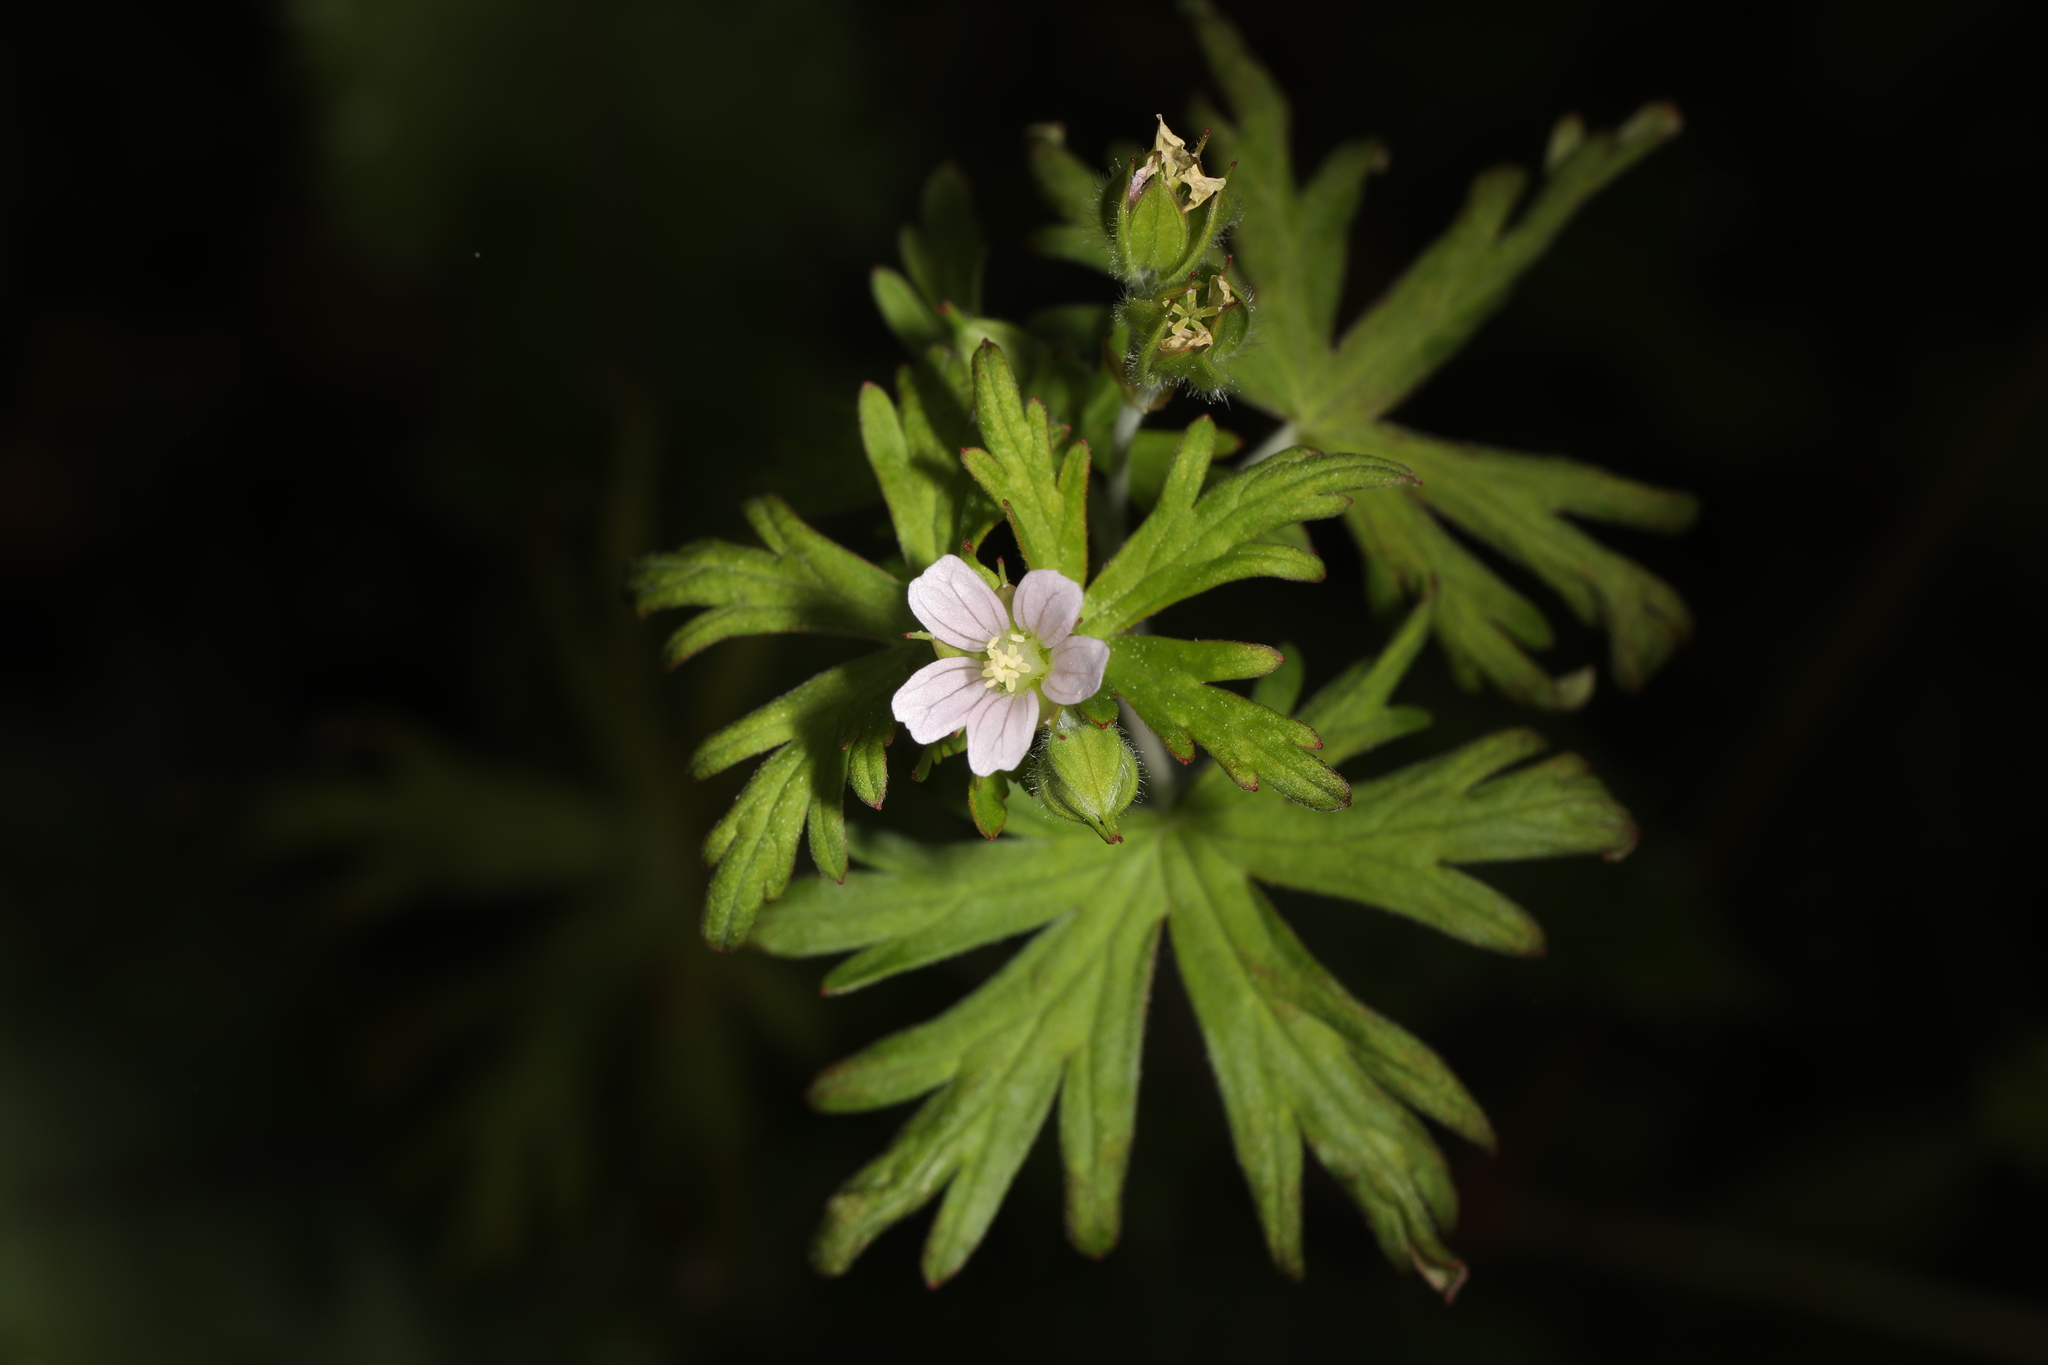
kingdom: Plantae
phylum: Tracheophyta
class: Magnoliopsida
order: Geraniales
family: Geraniaceae
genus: Geranium
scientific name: Geranium carolinianum
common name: Carolina crane's-bill
